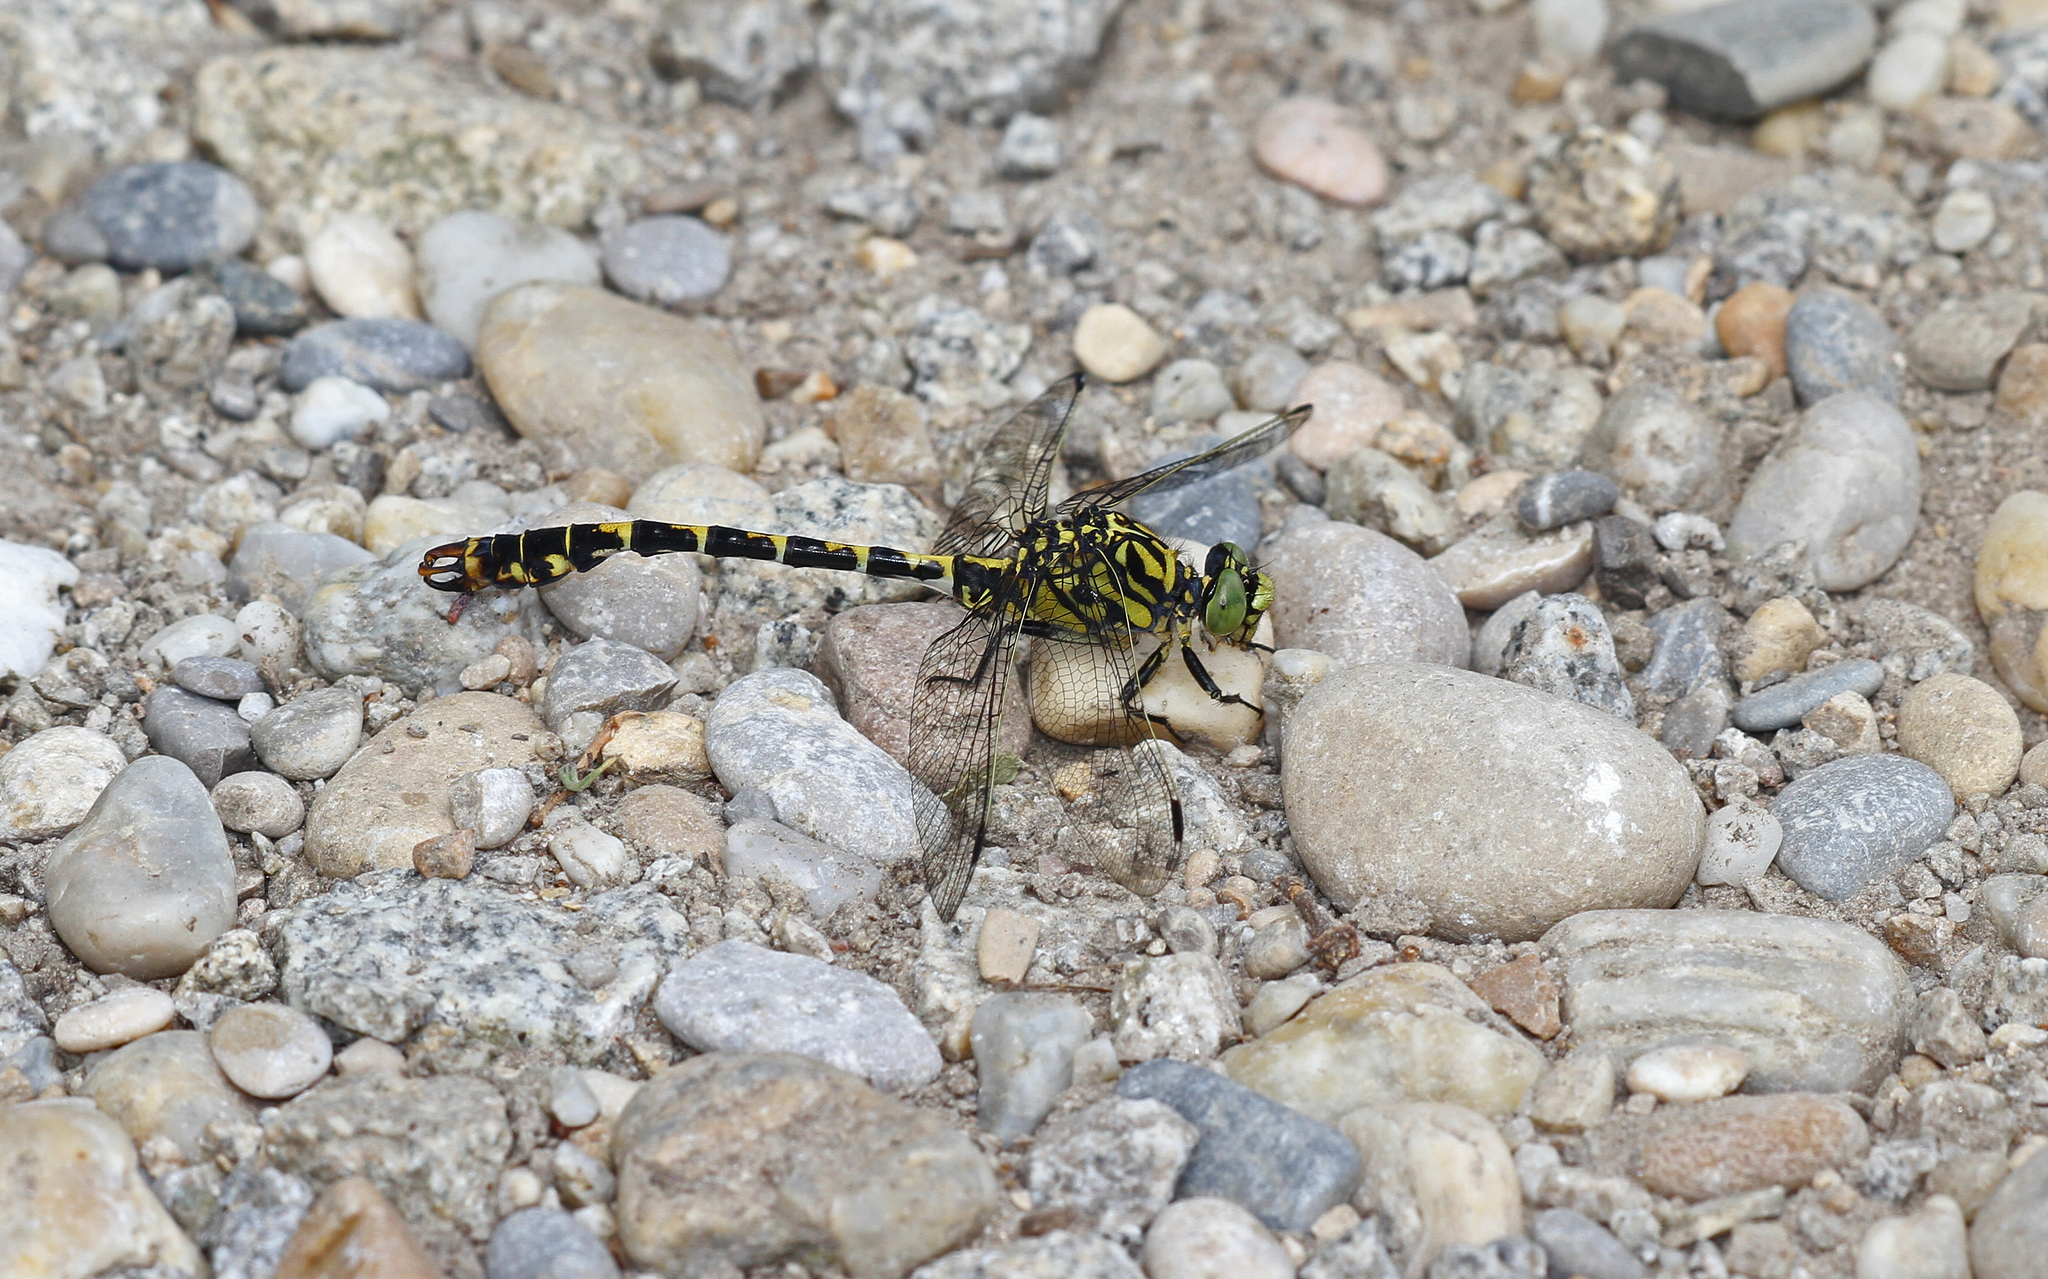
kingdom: Animalia
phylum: Arthropoda
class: Insecta
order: Odonata
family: Gomphidae
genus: Onychogomphus
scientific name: Onychogomphus forcipatus
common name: Small pincertail
